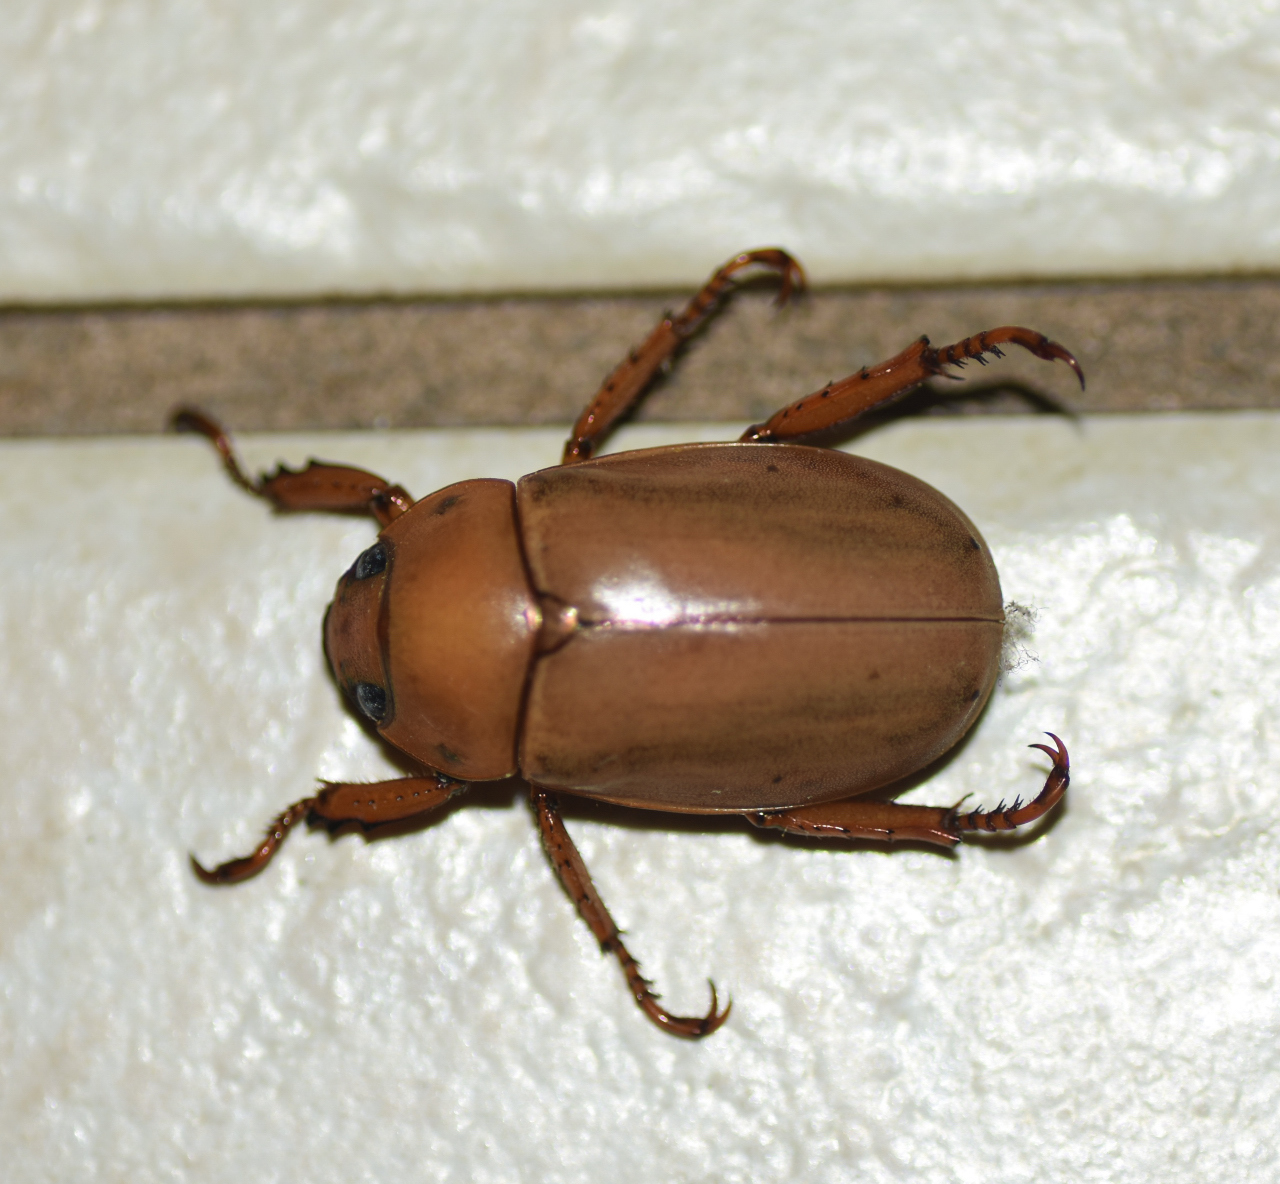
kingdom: Animalia
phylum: Arthropoda
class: Insecta
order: Coleoptera
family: Scarabaeidae
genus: Pelidnota
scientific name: Pelidnota notata
